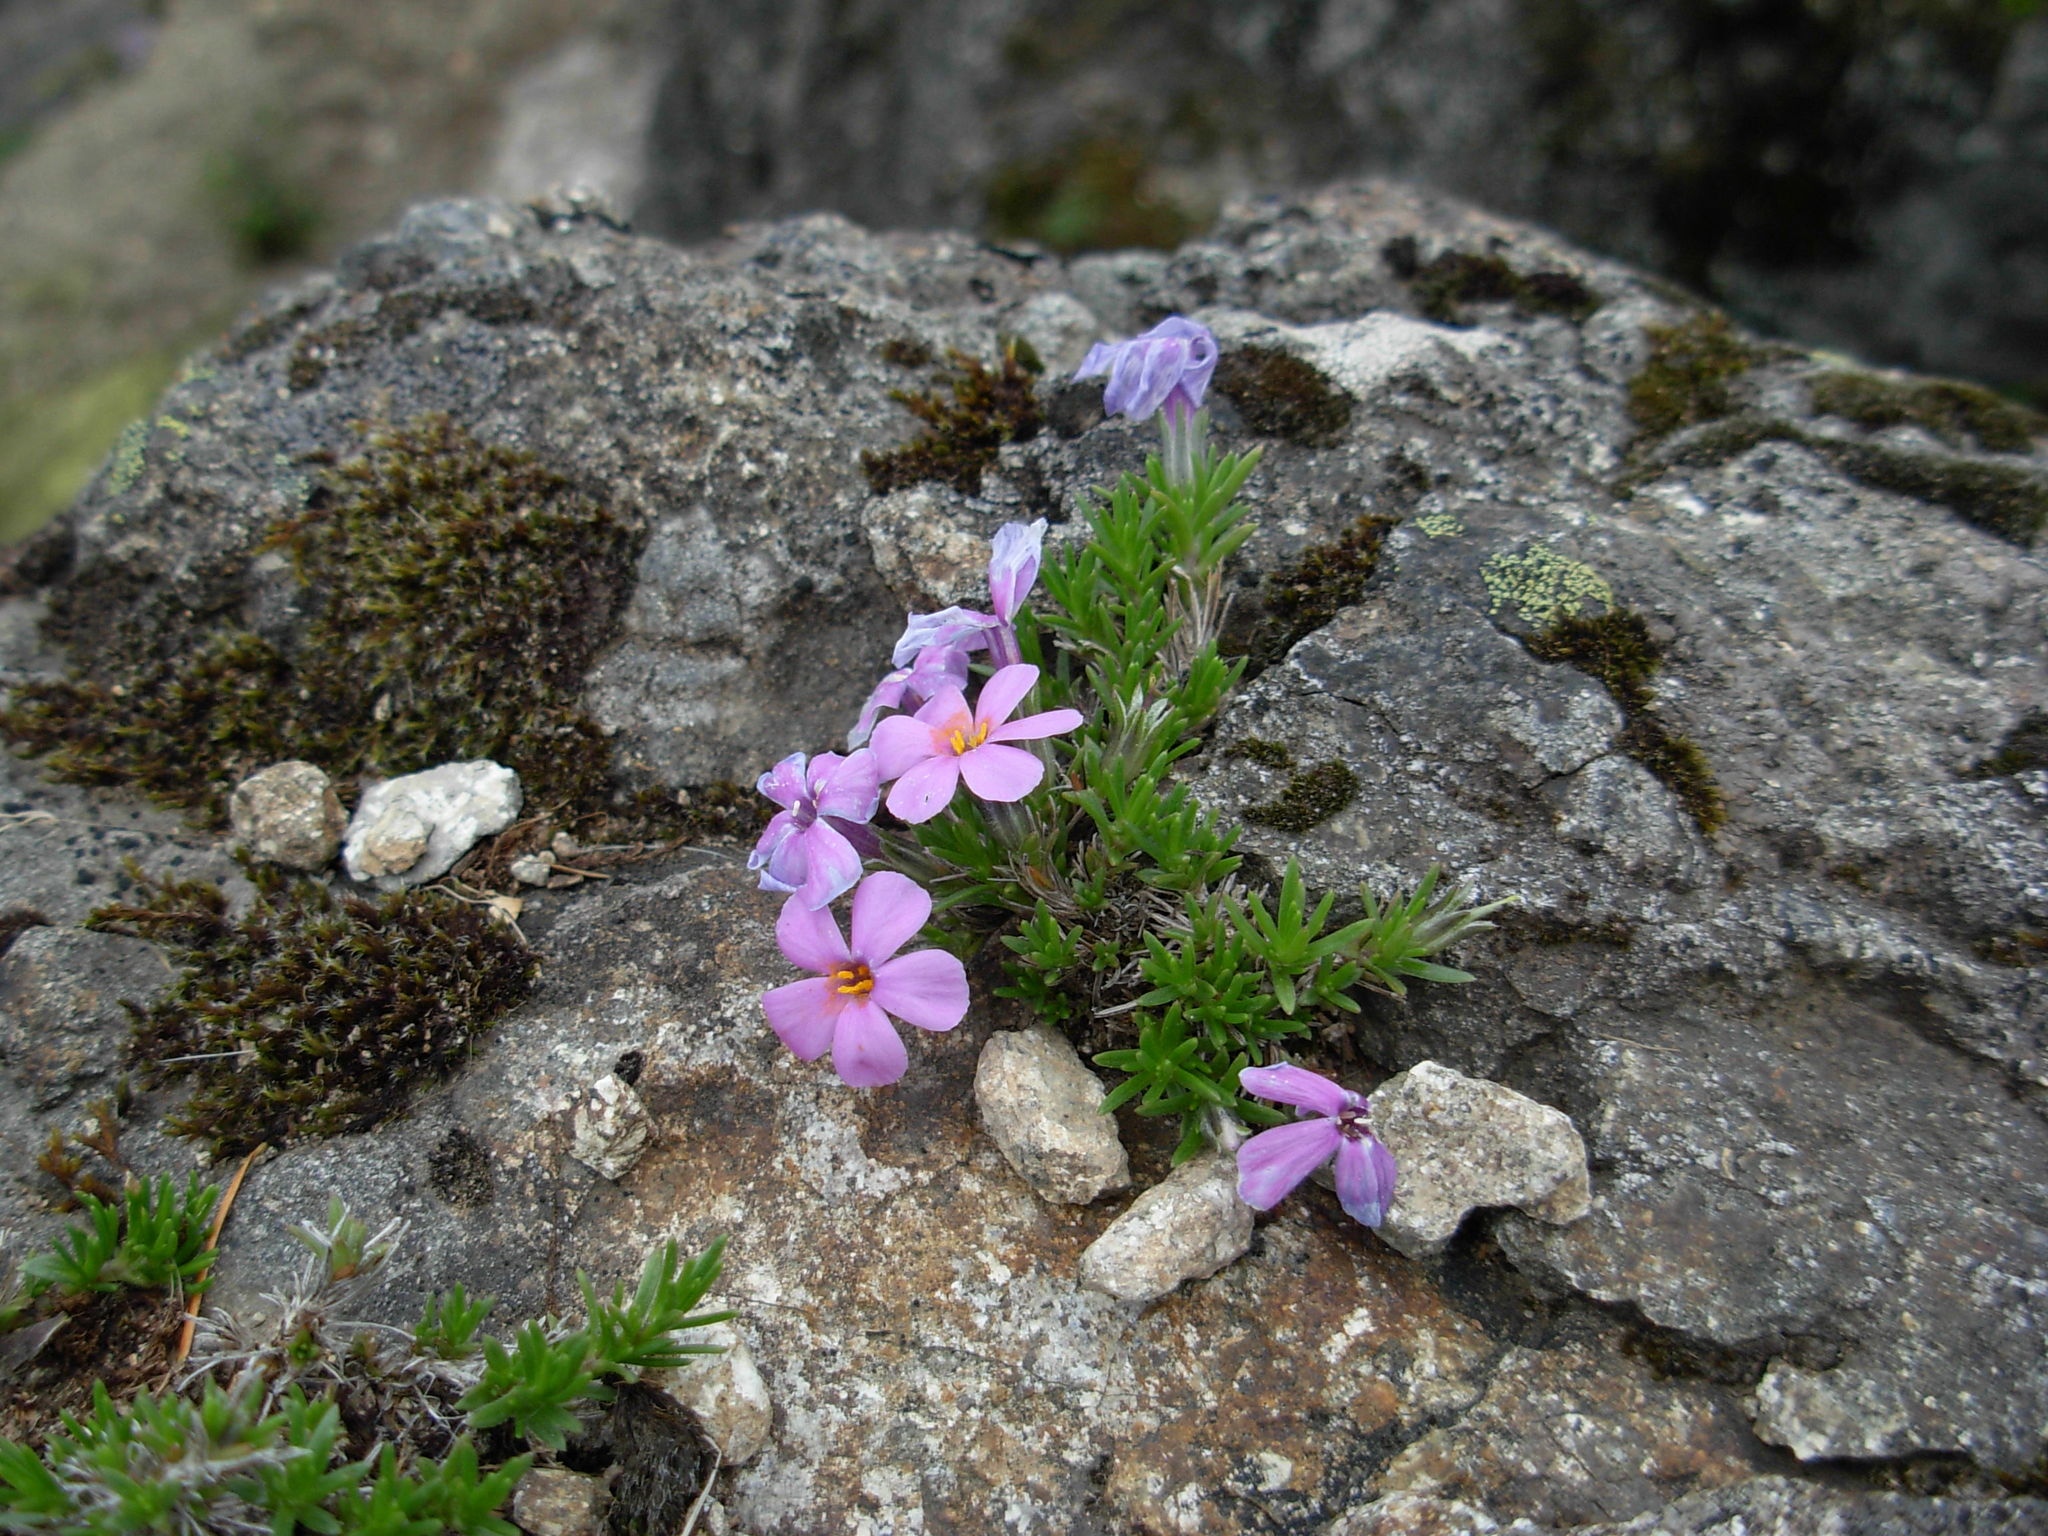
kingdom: Plantae
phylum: Tracheophyta
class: Magnoliopsida
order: Ericales
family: Polemoniaceae
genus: Phlox
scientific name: Phlox diffusa
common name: Mat phlox
